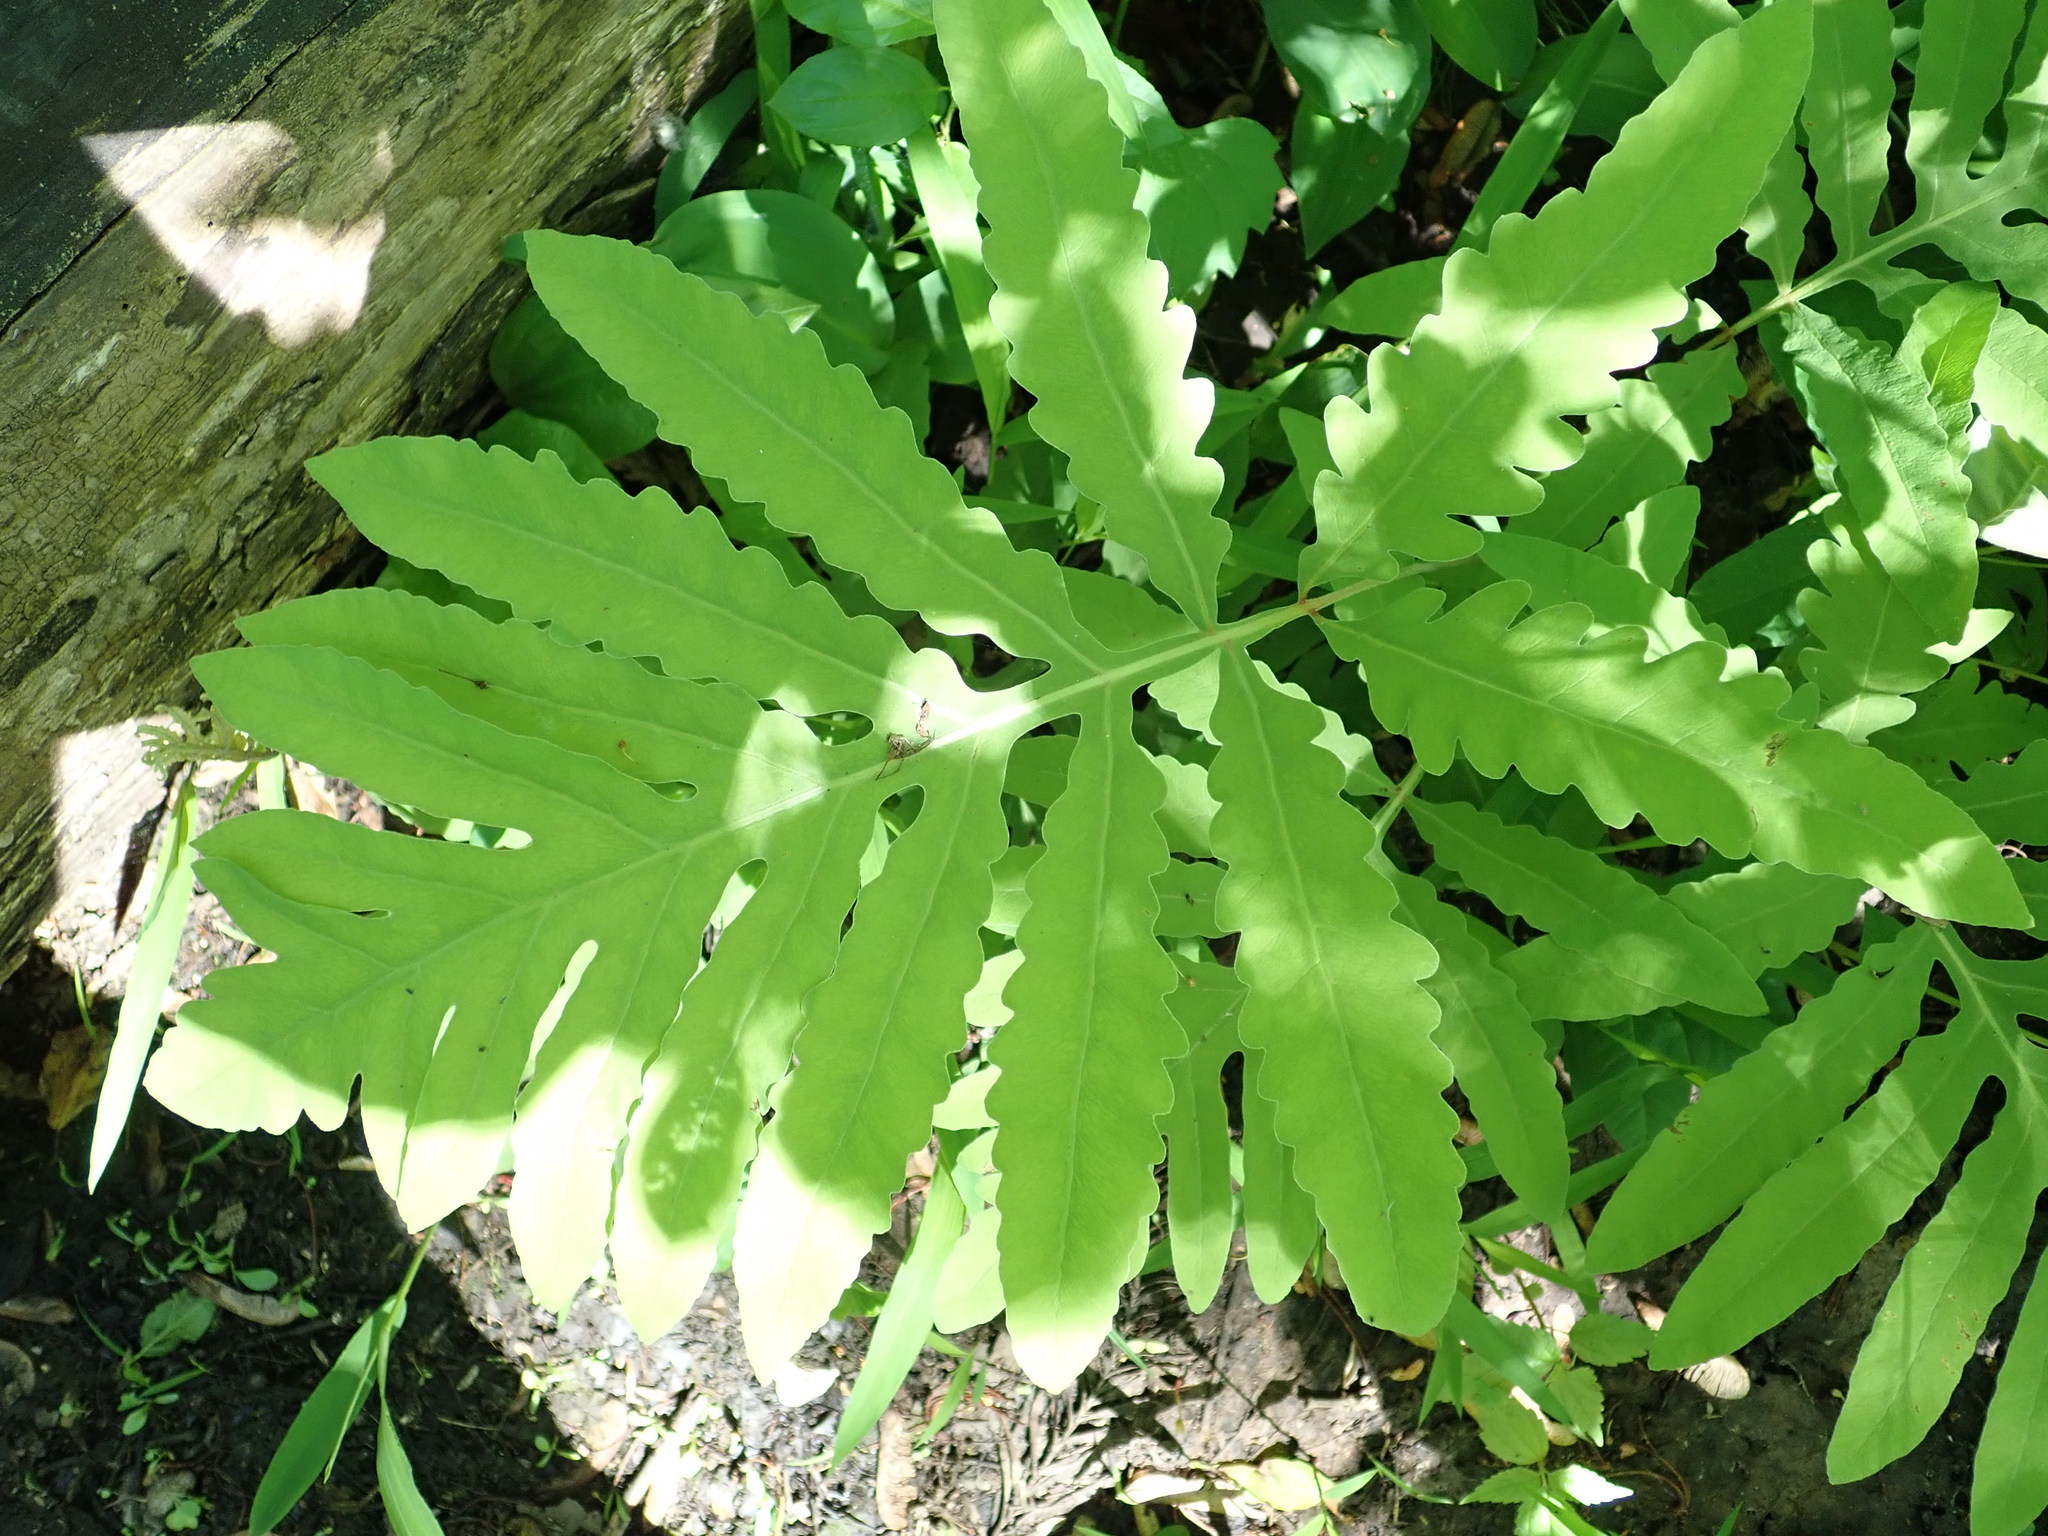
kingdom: Plantae
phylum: Tracheophyta
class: Polypodiopsida
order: Polypodiales
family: Onocleaceae
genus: Onoclea
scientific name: Onoclea sensibilis
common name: Sensitive fern
